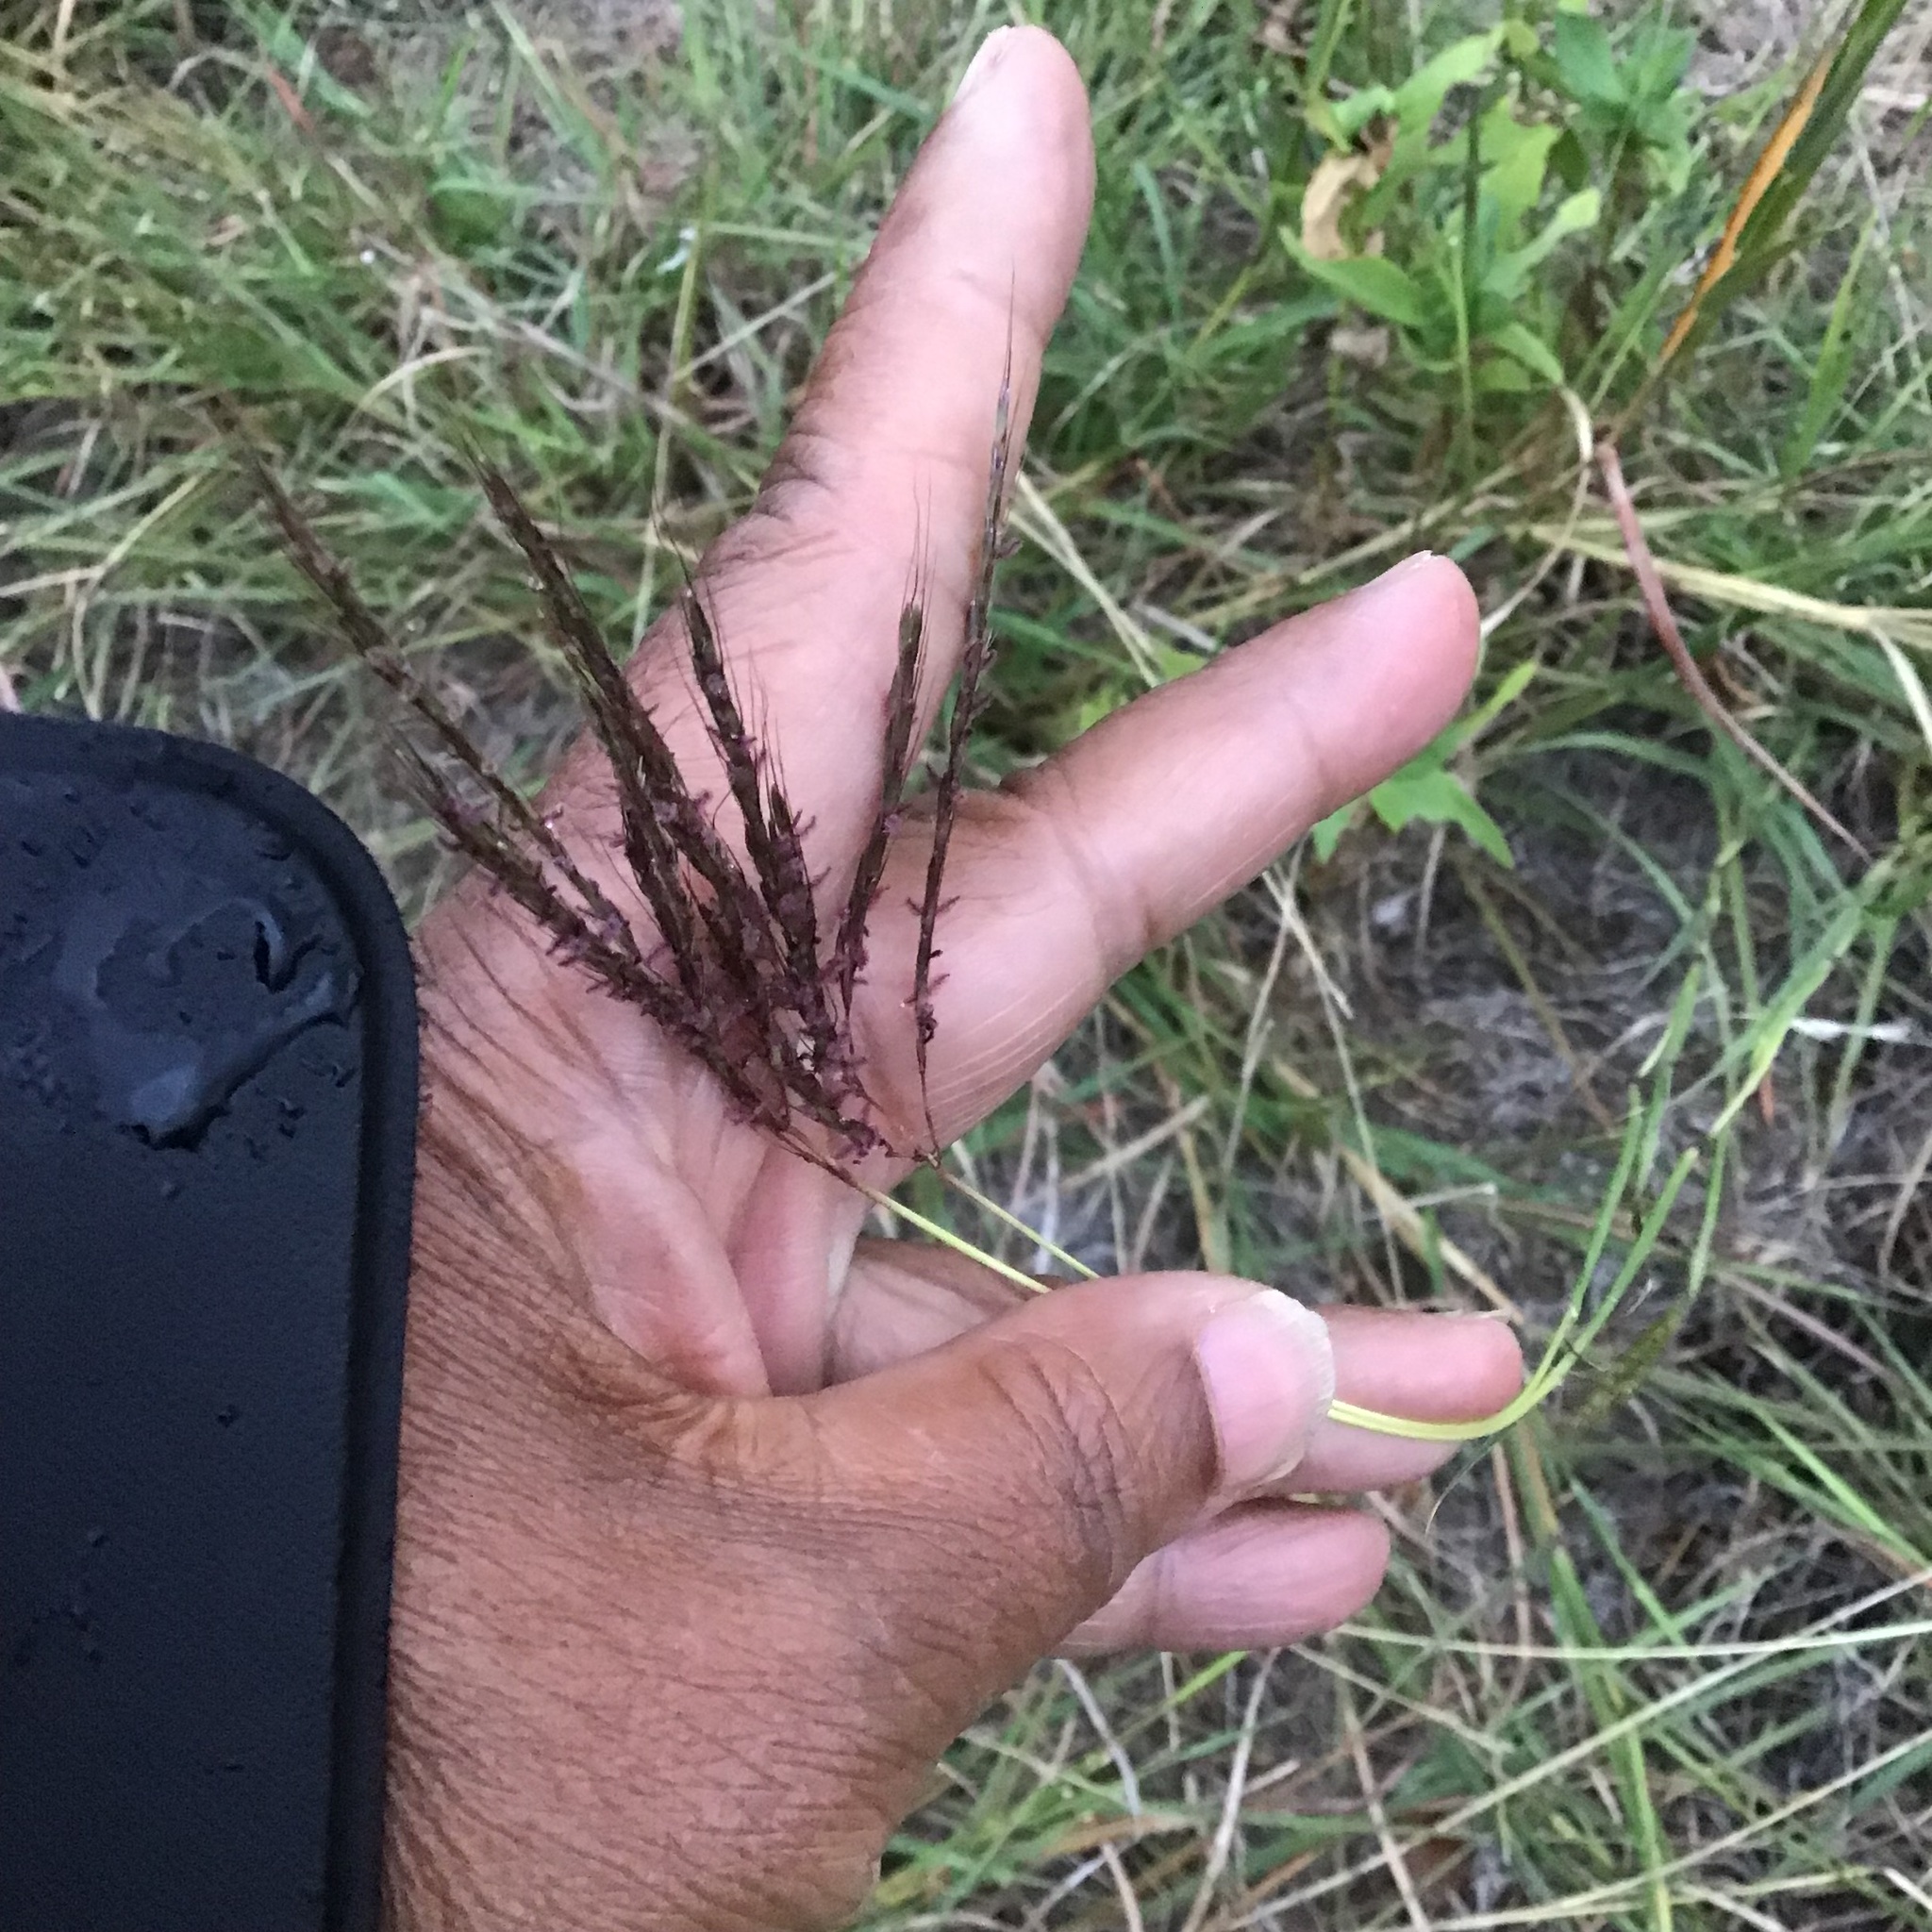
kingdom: Plantae
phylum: Tracheophyta
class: Liliopsida
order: Poales
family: Poaceae
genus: Bothriochloa
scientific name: Bothriochloa ischaemum
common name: Yellow bluestem
